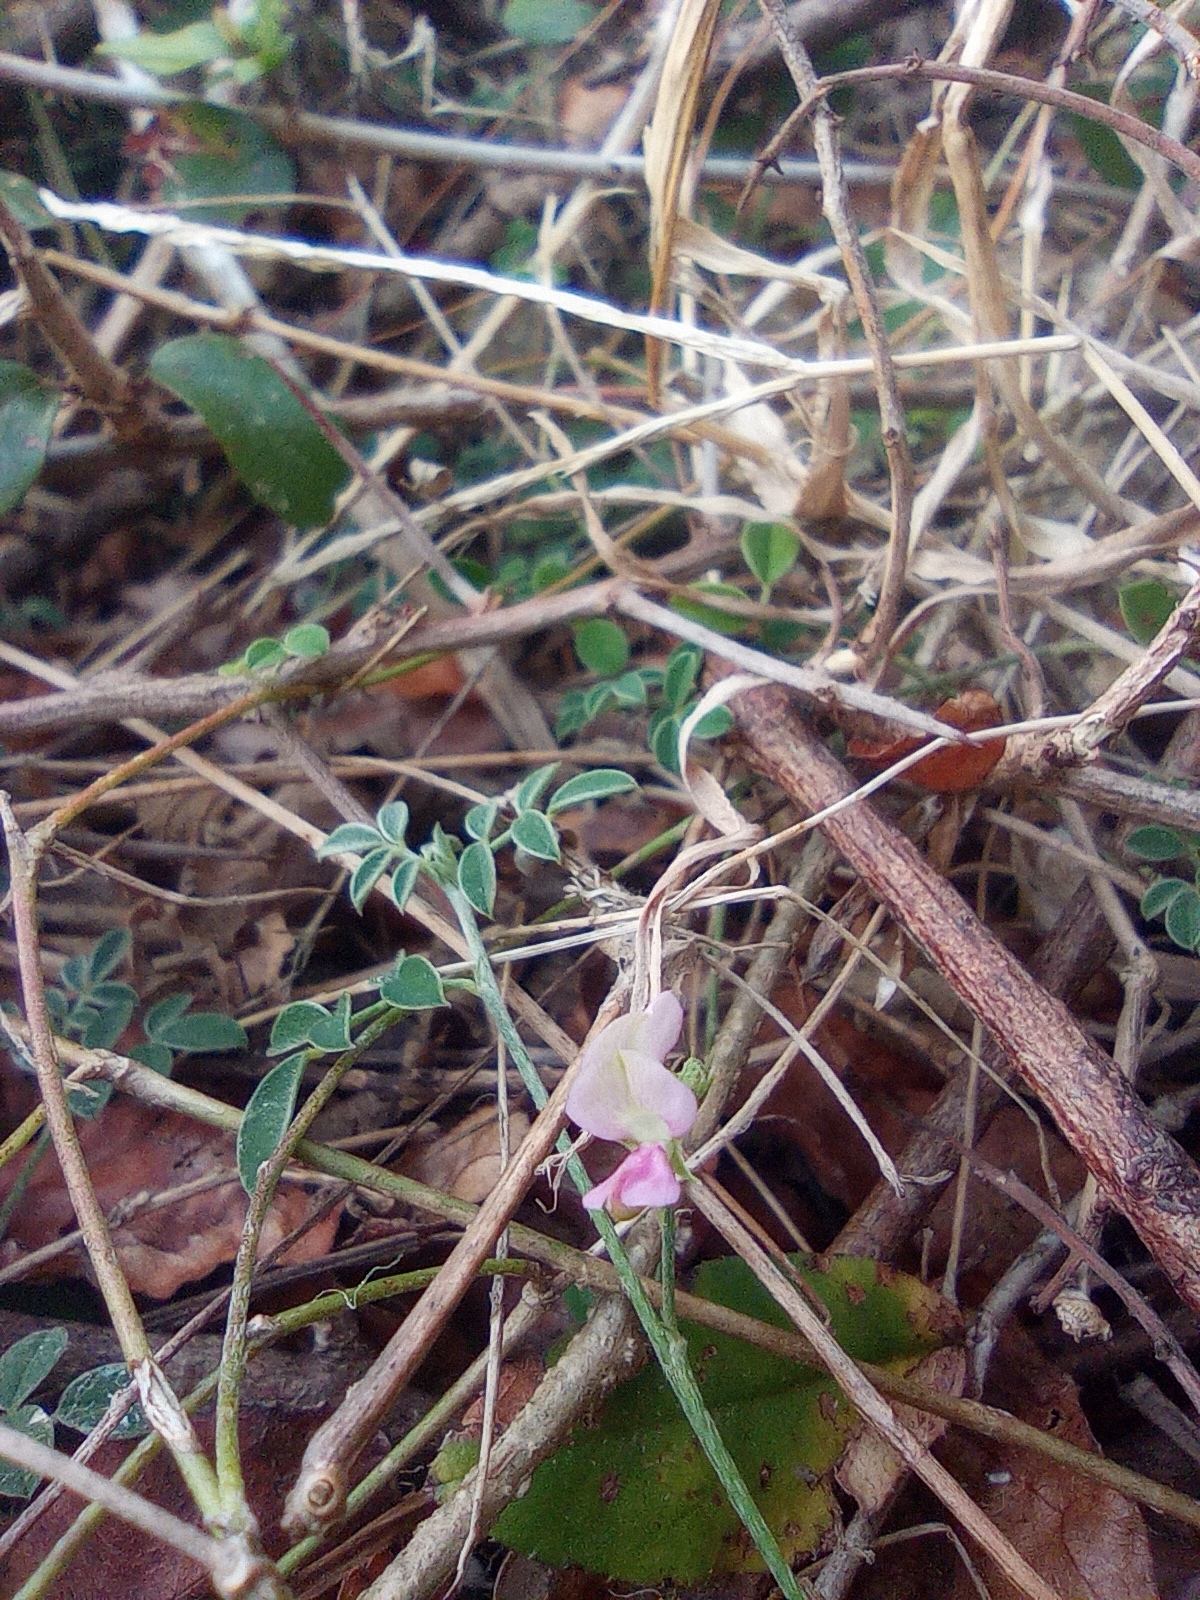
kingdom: Plantae
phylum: Tracheophyta
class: Magnoliopsida
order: Fabales
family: Fabaceae
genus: Indigofera
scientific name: Indigofera byobiensis
